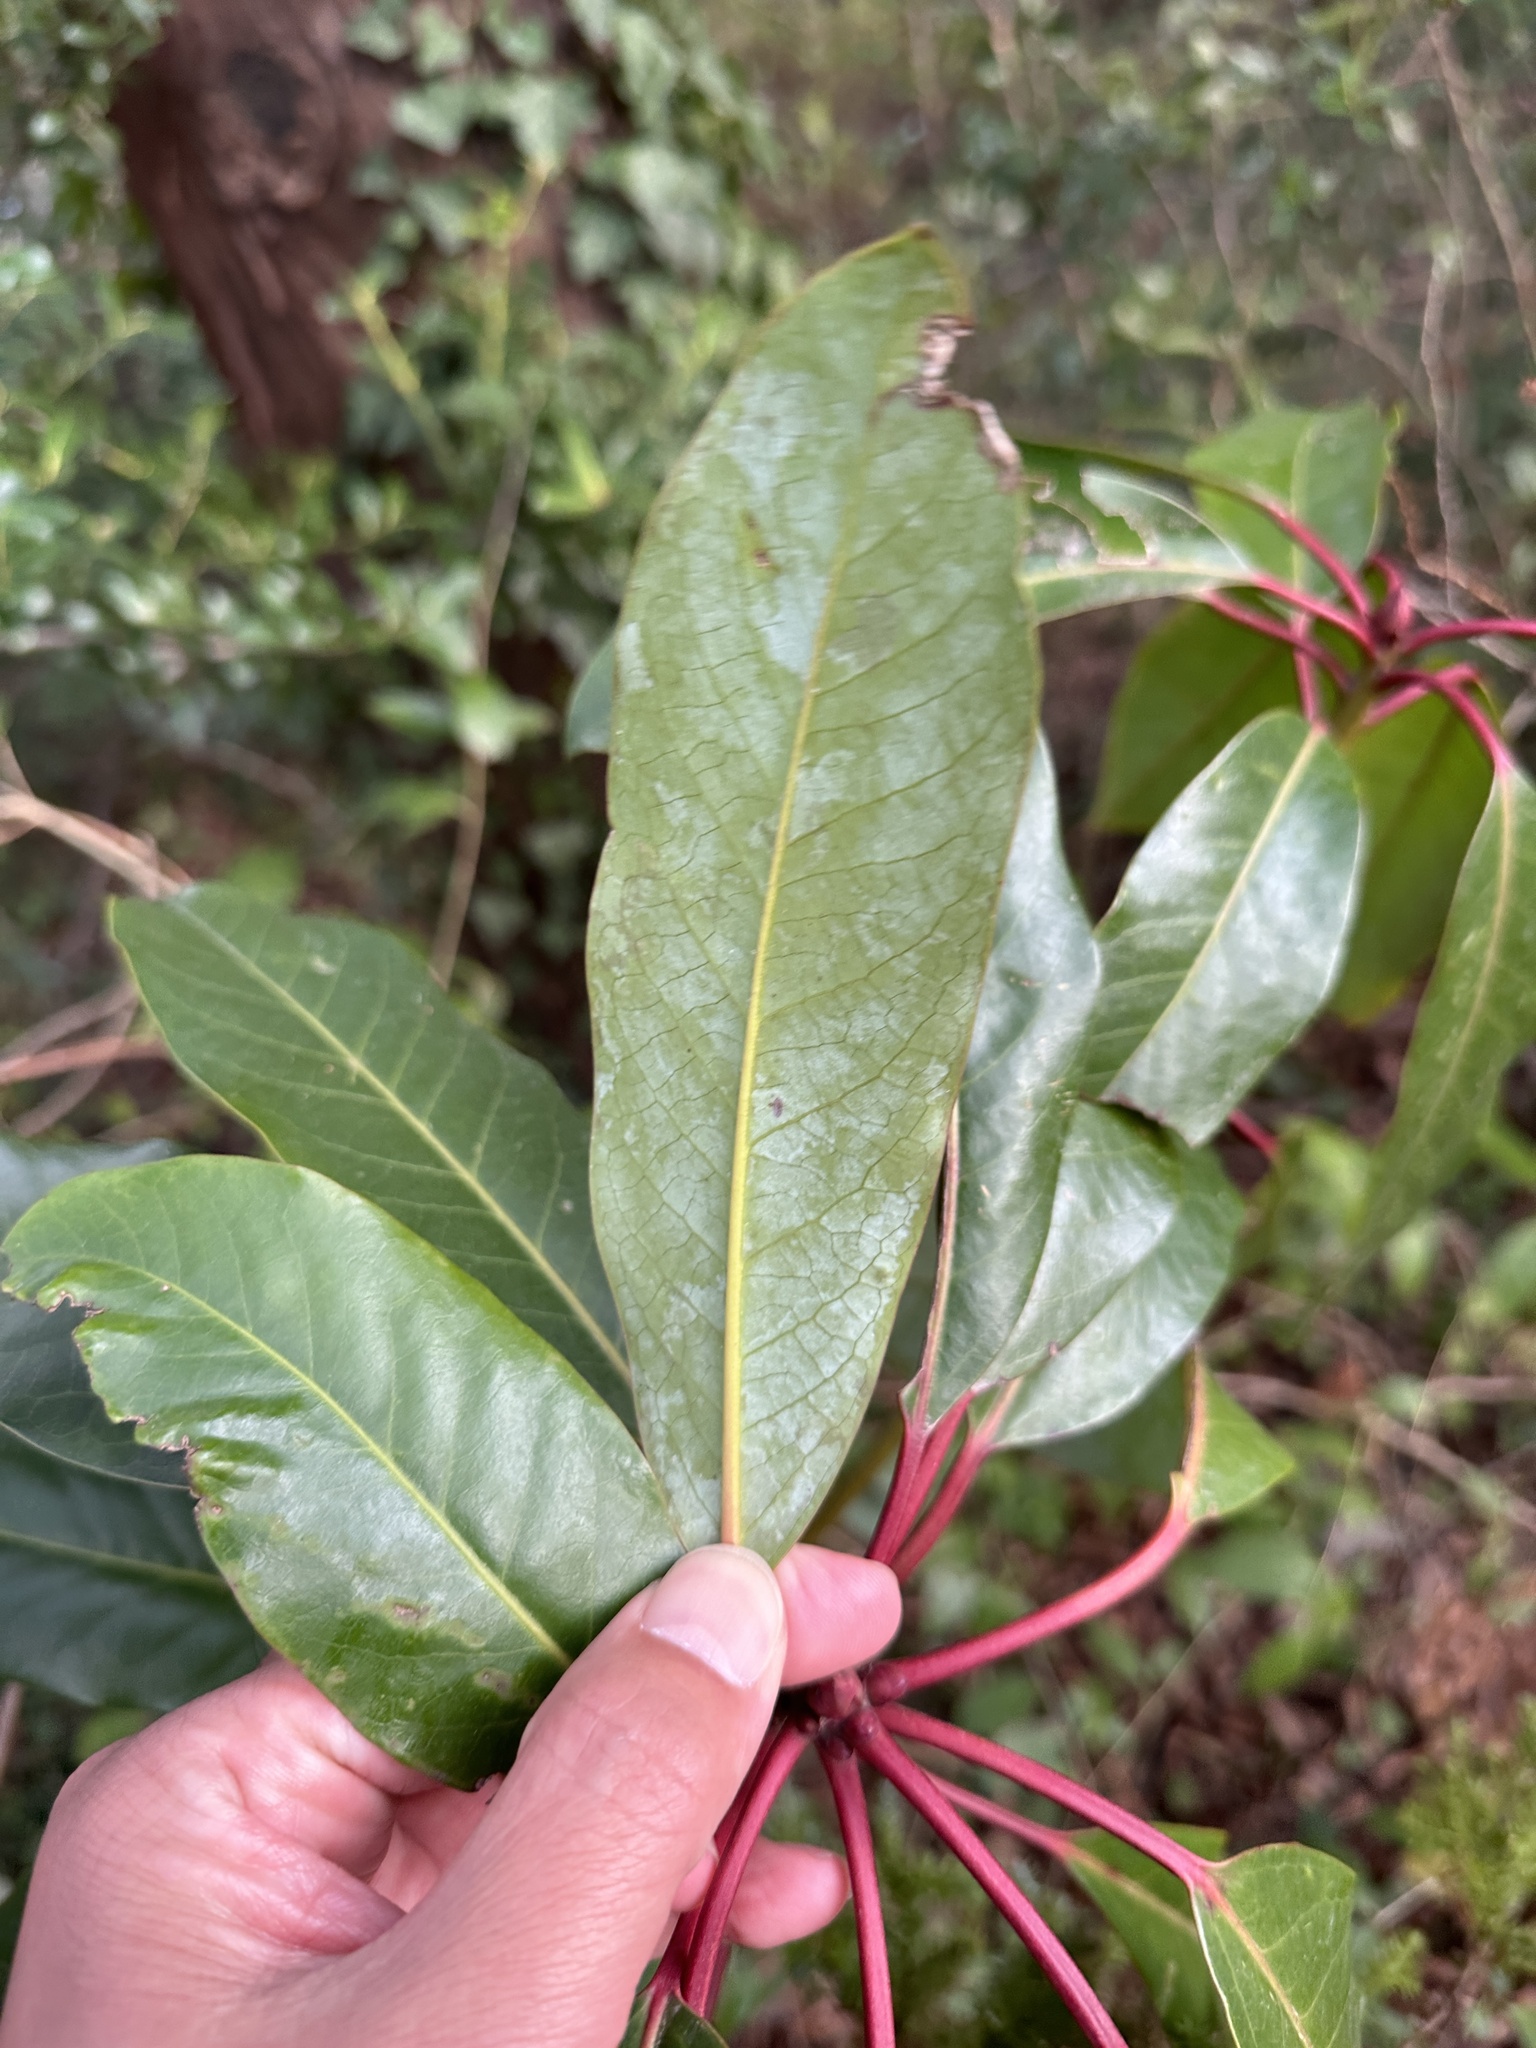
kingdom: Plantae
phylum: Tracheophyta
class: Magnoliopsida
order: Saxifragales
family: Daphniphyllaceae
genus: Daphniphyllum
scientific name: Daphniphyllum macropodum
